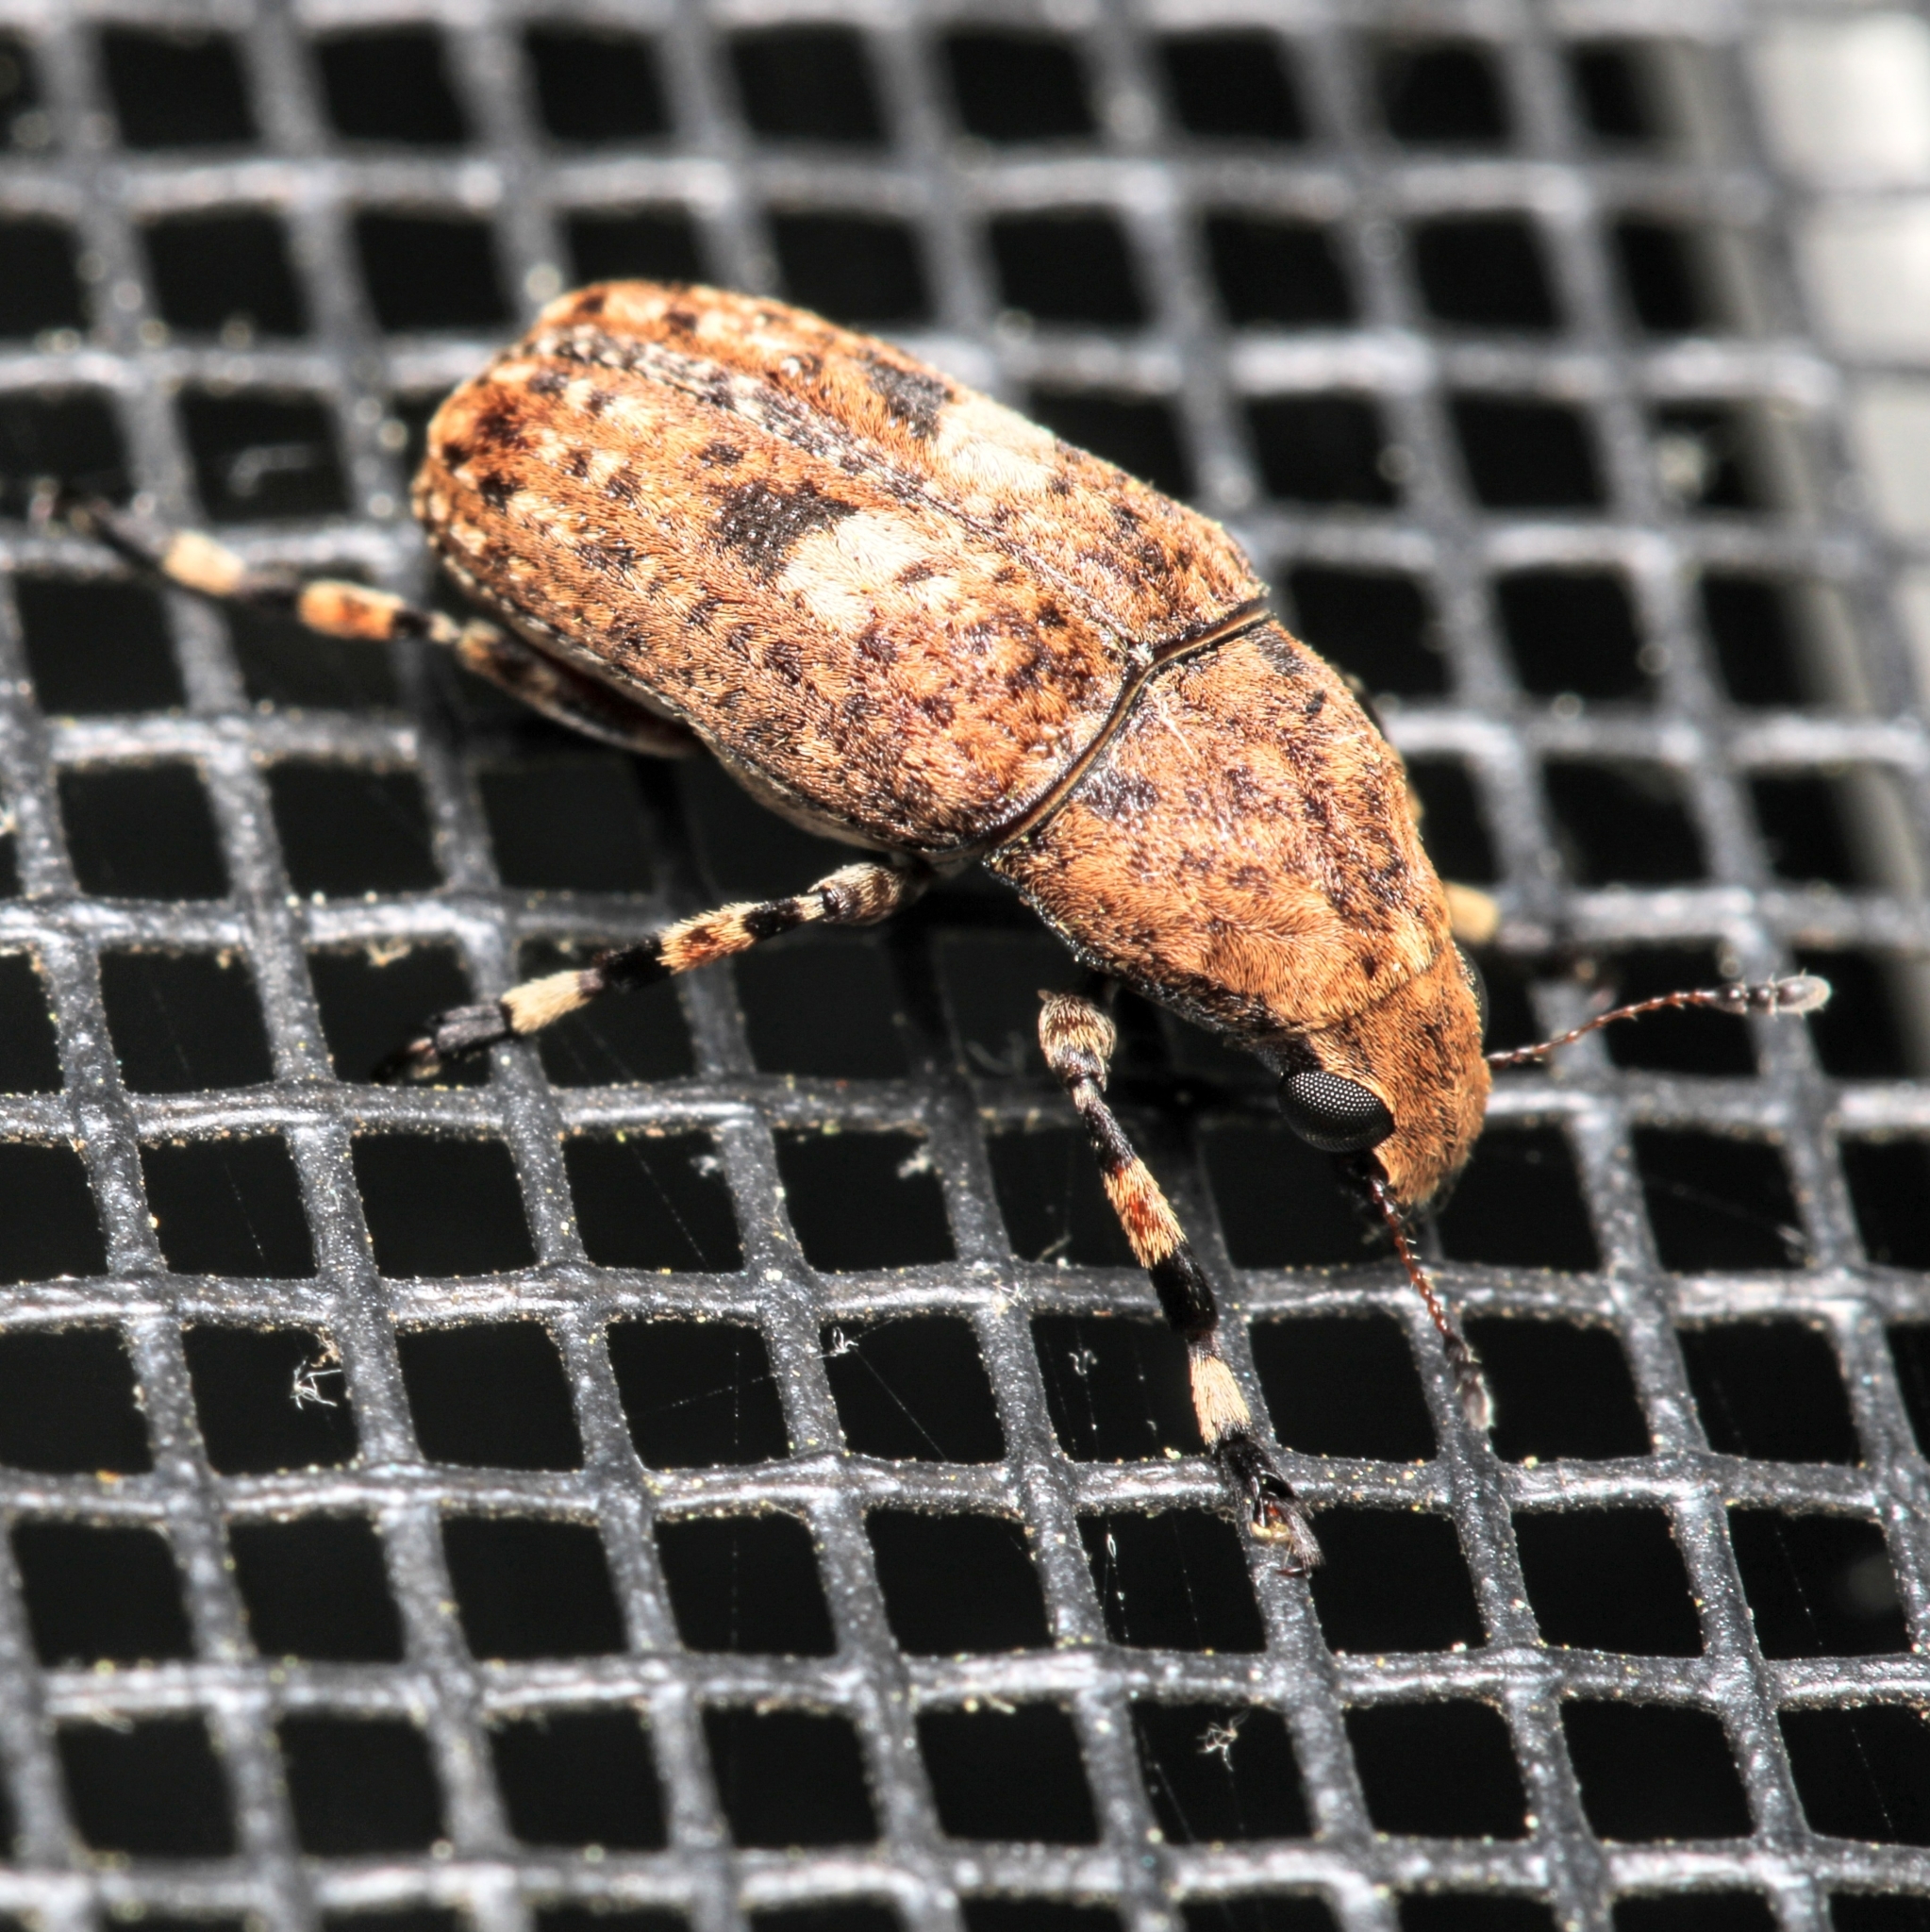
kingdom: Animalia
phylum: Arthropoda
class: Insecta
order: Coleoptera
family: Anthribidae
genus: Euparius
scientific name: Euparius marmoreus
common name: Marbled fungus weevil
